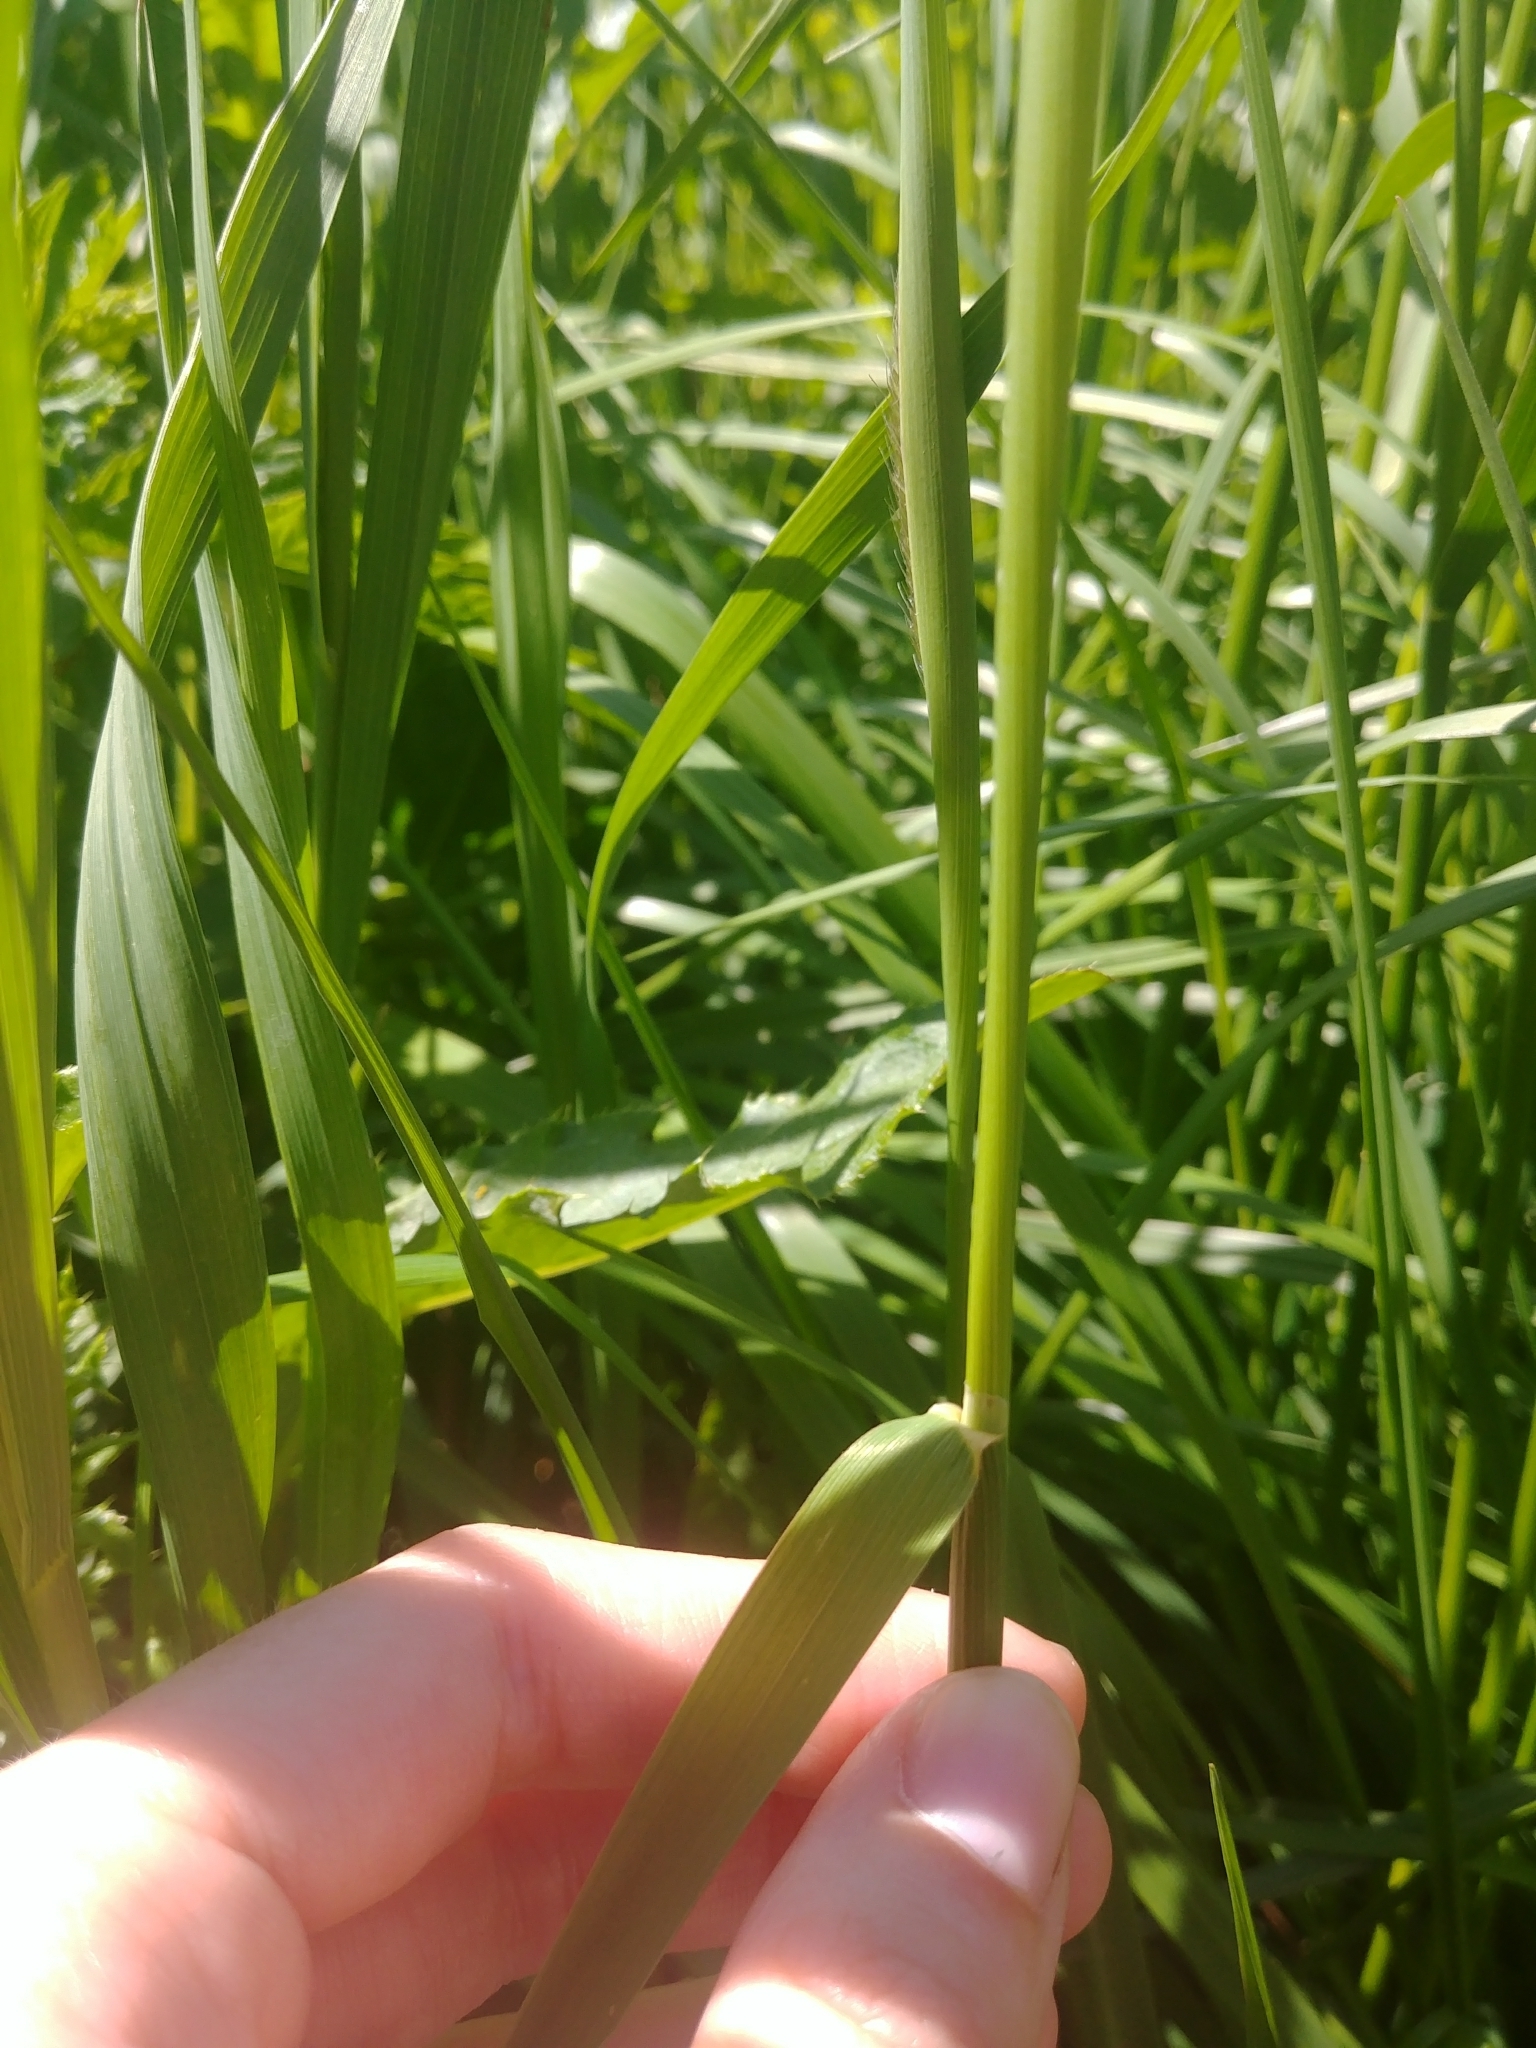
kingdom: Plantae
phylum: Tracheophyta
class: Liliopsida
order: Poales
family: Poaceae
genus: Alopecurus
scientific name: Alopecurus pratensis
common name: Meadow foxtail
